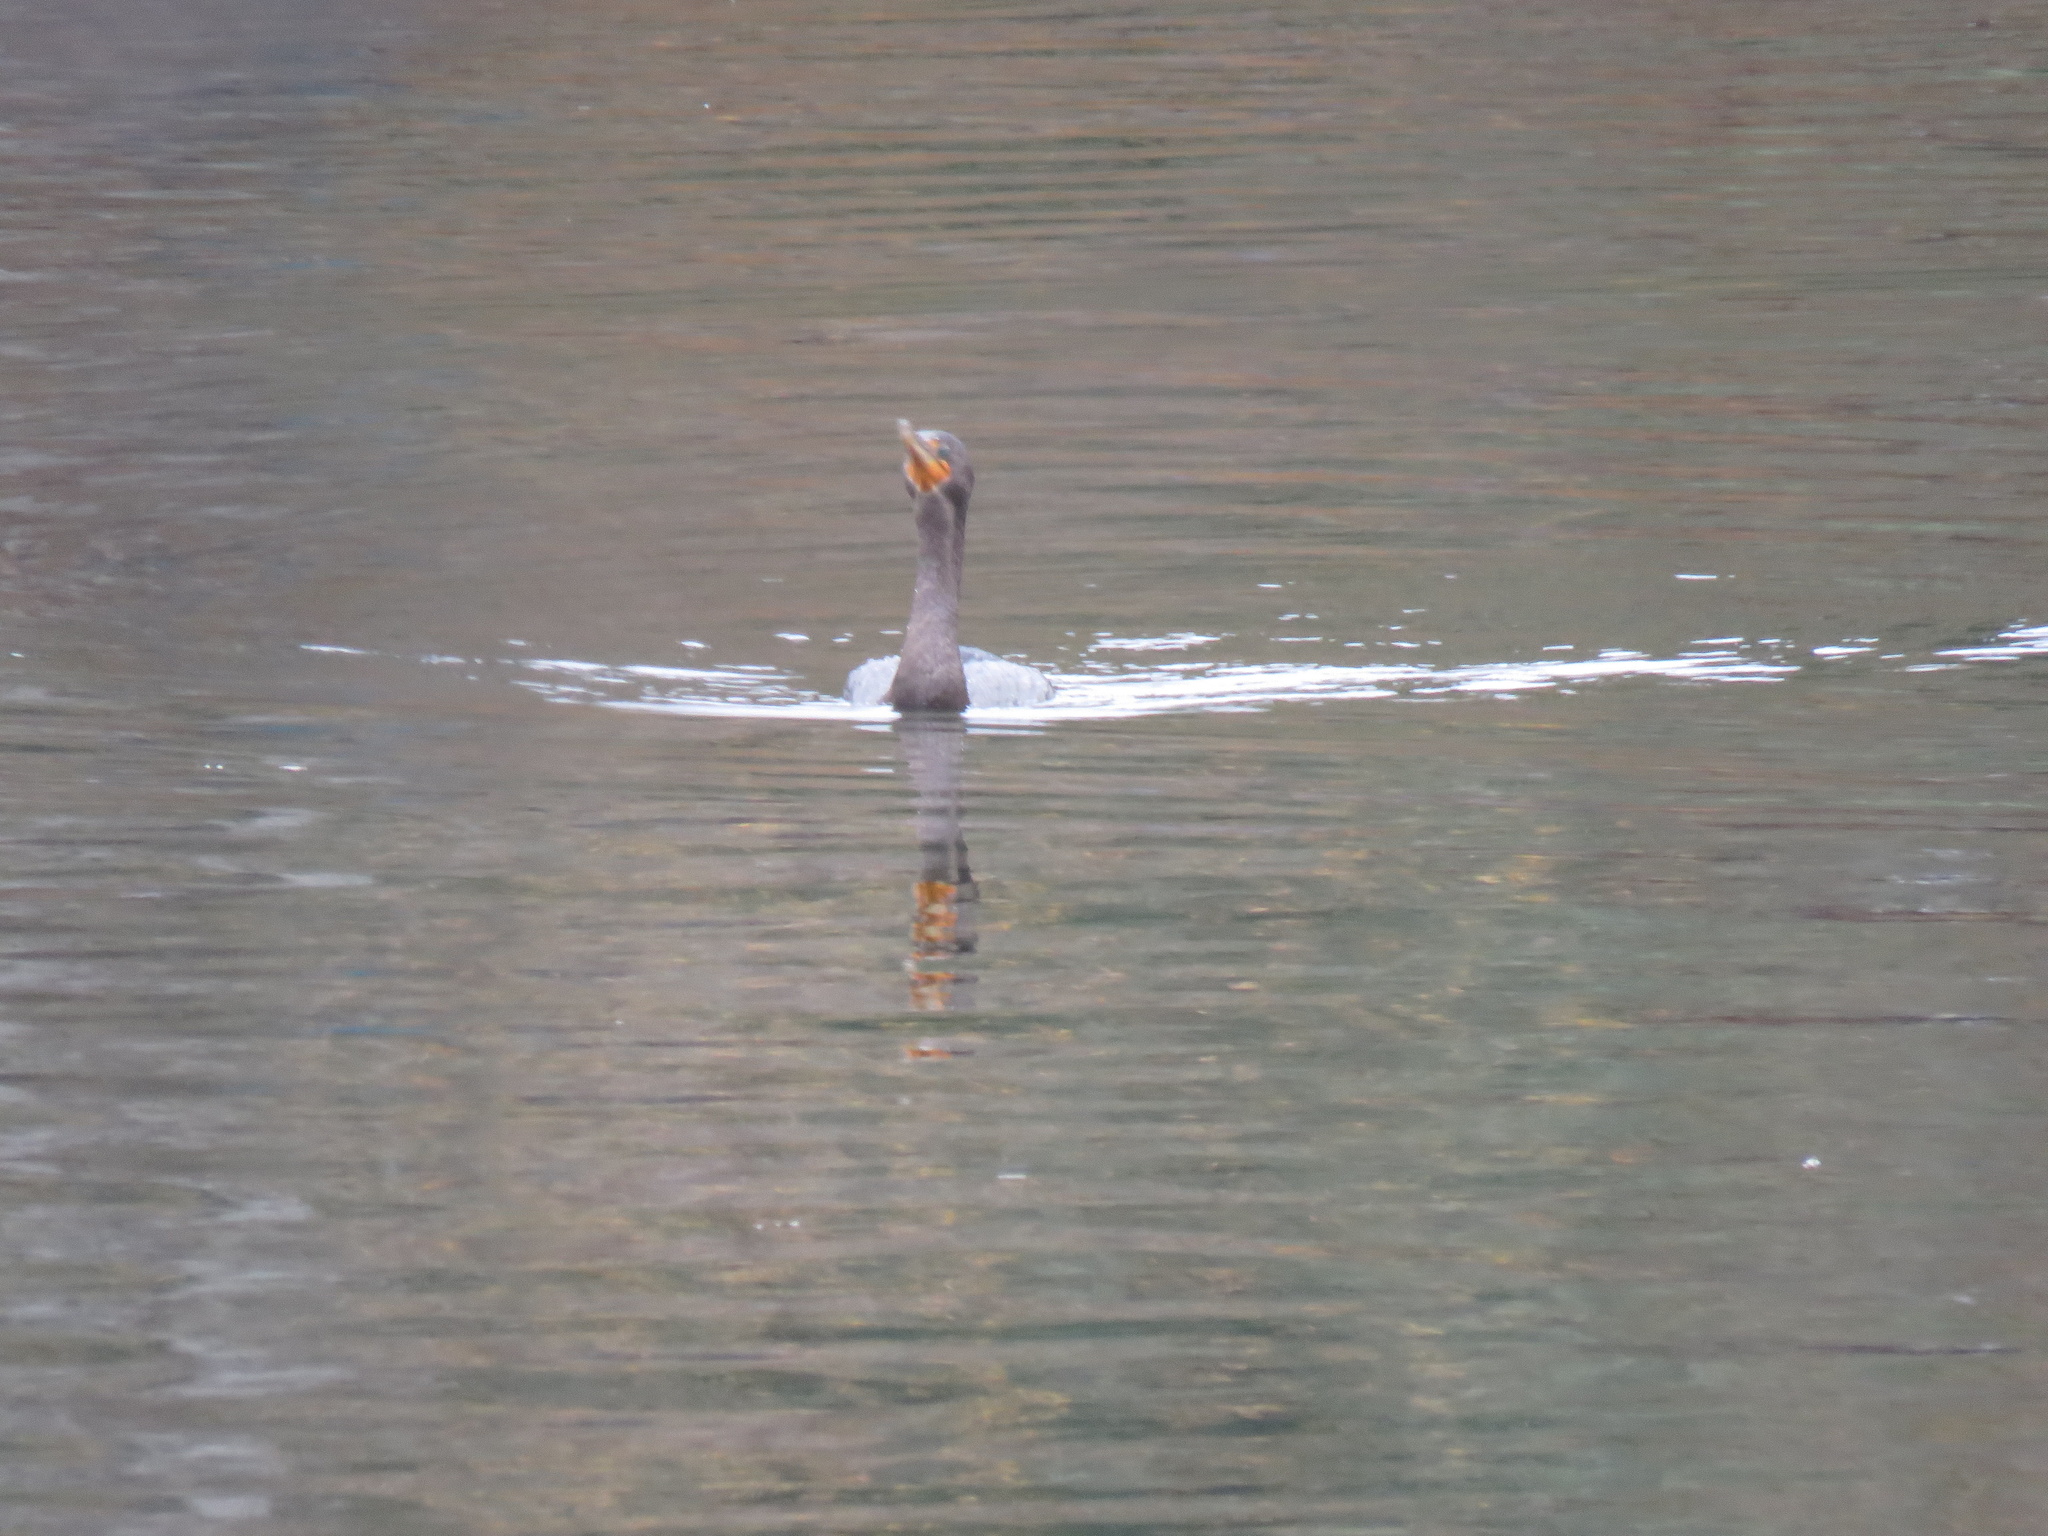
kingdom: Animalia
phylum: Chordata
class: Aves
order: Suliformes
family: Phalacrocoracidae
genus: Phalacrocorax
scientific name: Phalacrocorax auritus
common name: Double-crested cormorant
